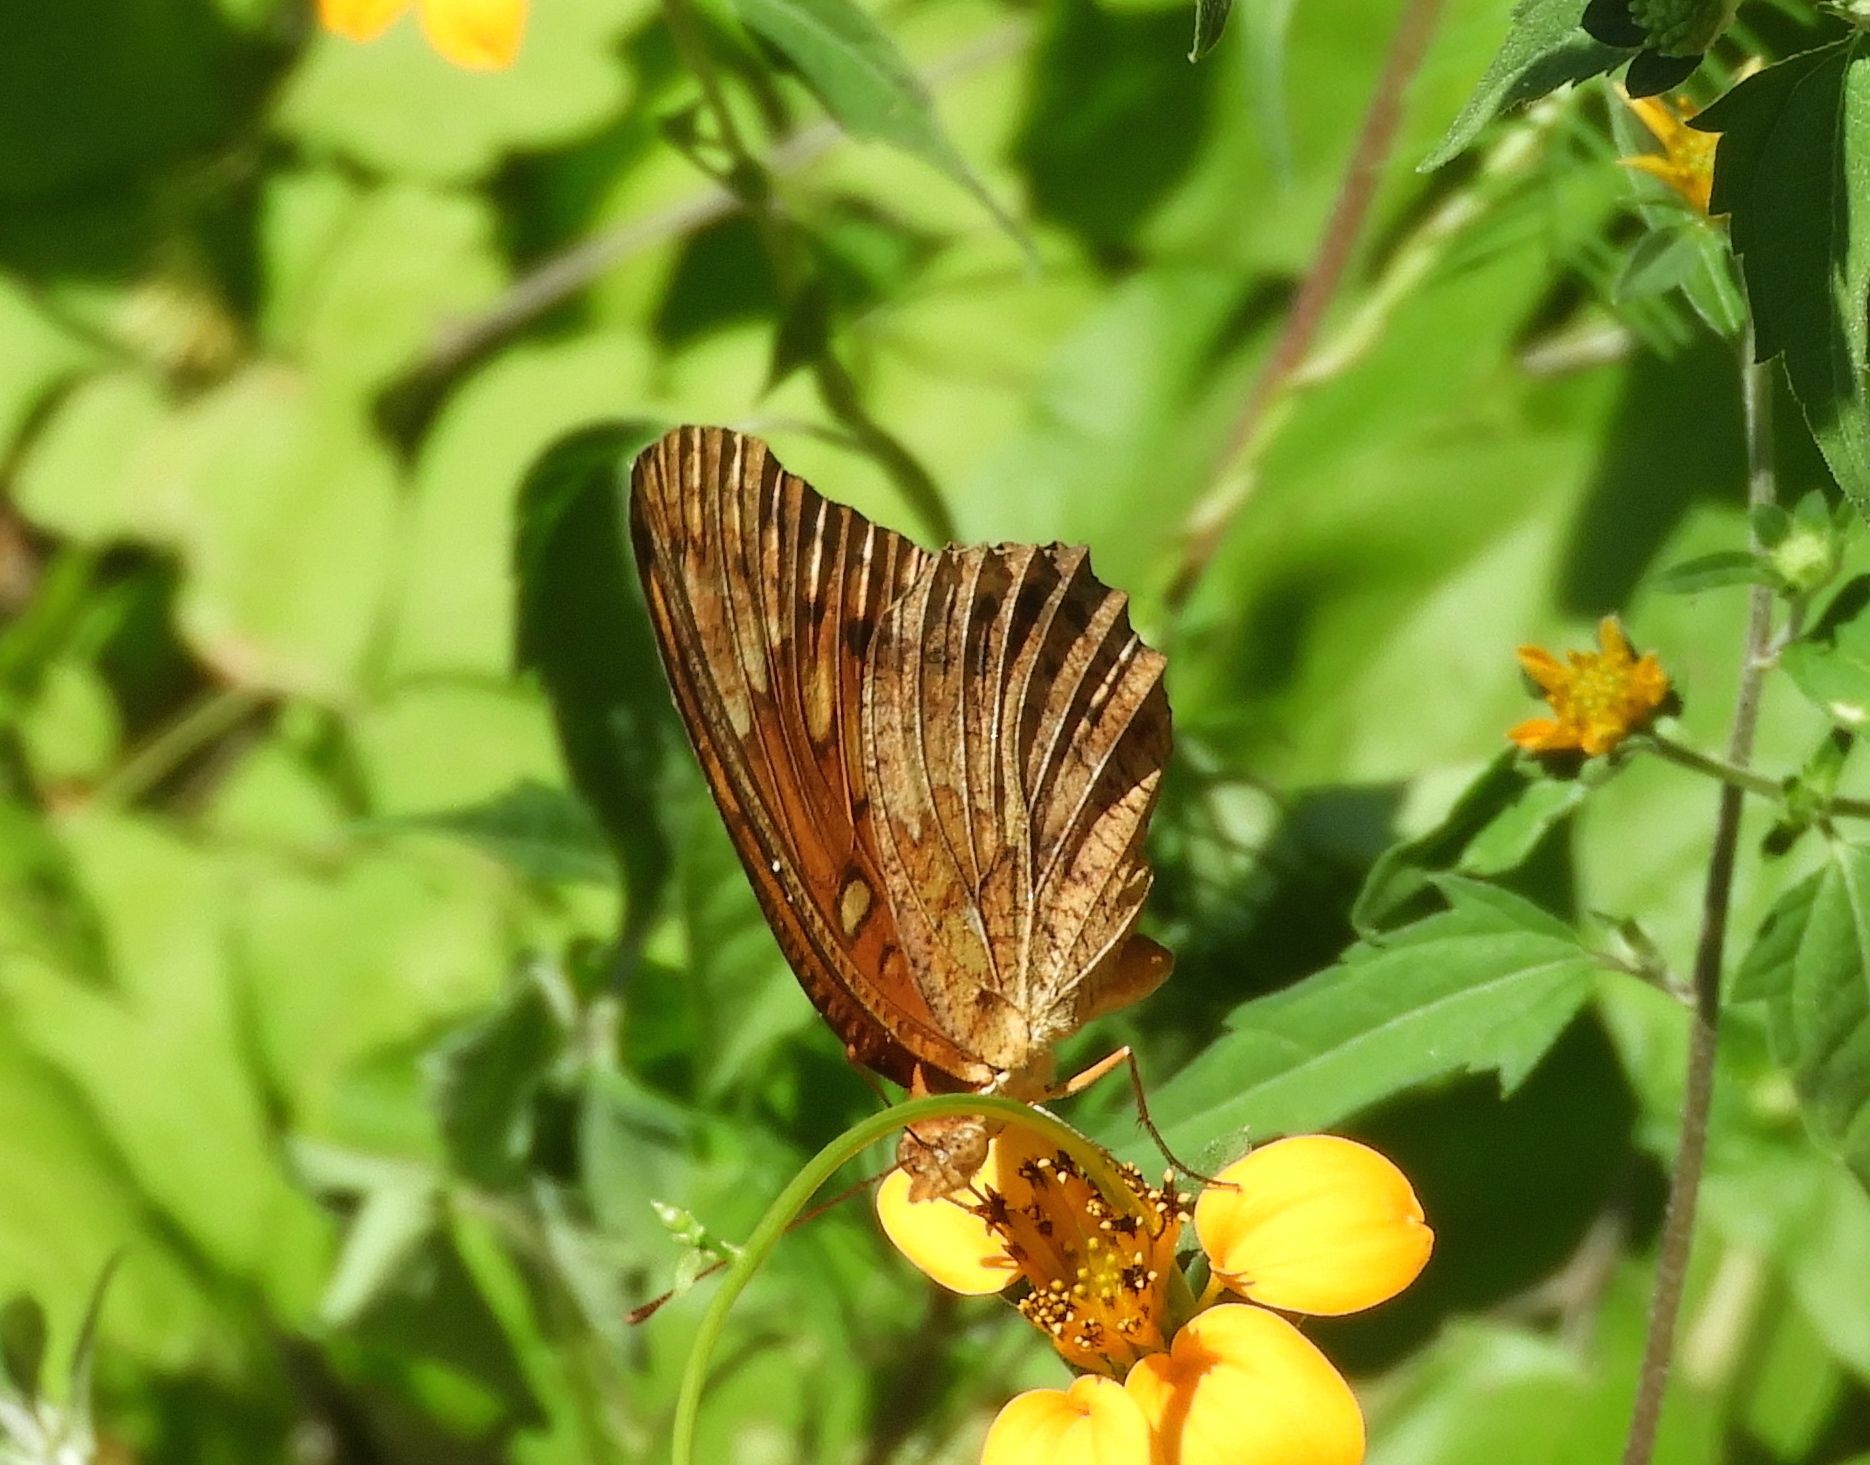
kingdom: Animalia
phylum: Arthropoda
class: Insecta
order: Lepidoptera
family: Nymphalidae
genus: Euptoieta
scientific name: Euptoieta hegesia
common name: Mexican fritillary
